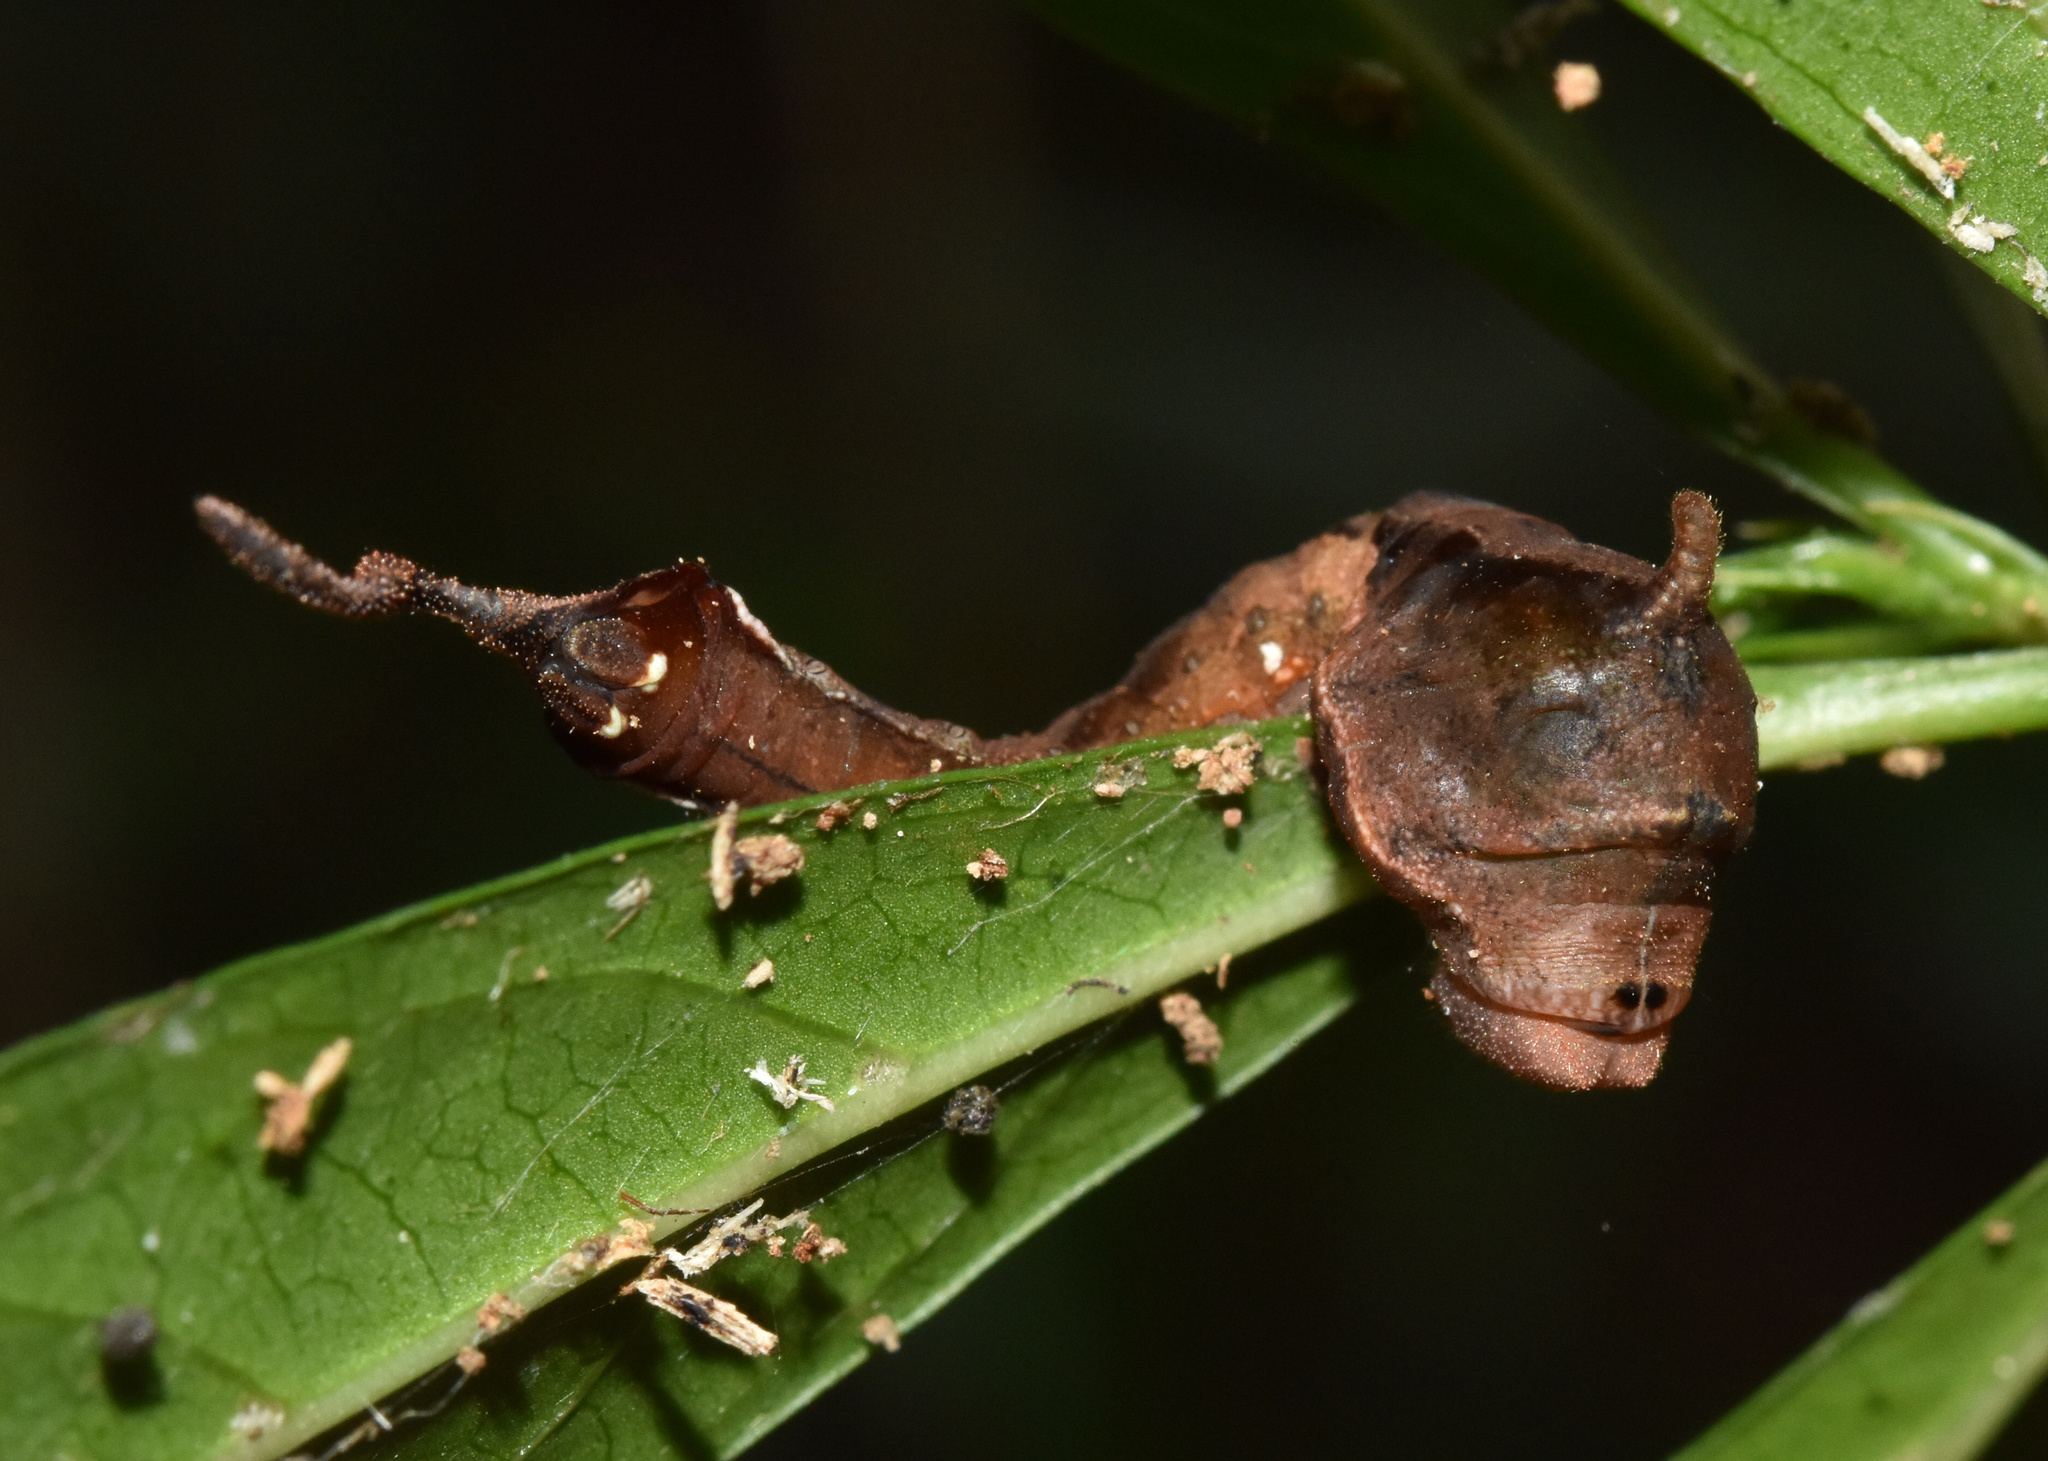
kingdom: Animalia
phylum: Arthropoda
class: Insecta
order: Lepidoptera
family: Drepanidae
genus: Negera
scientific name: Negera natalensis
